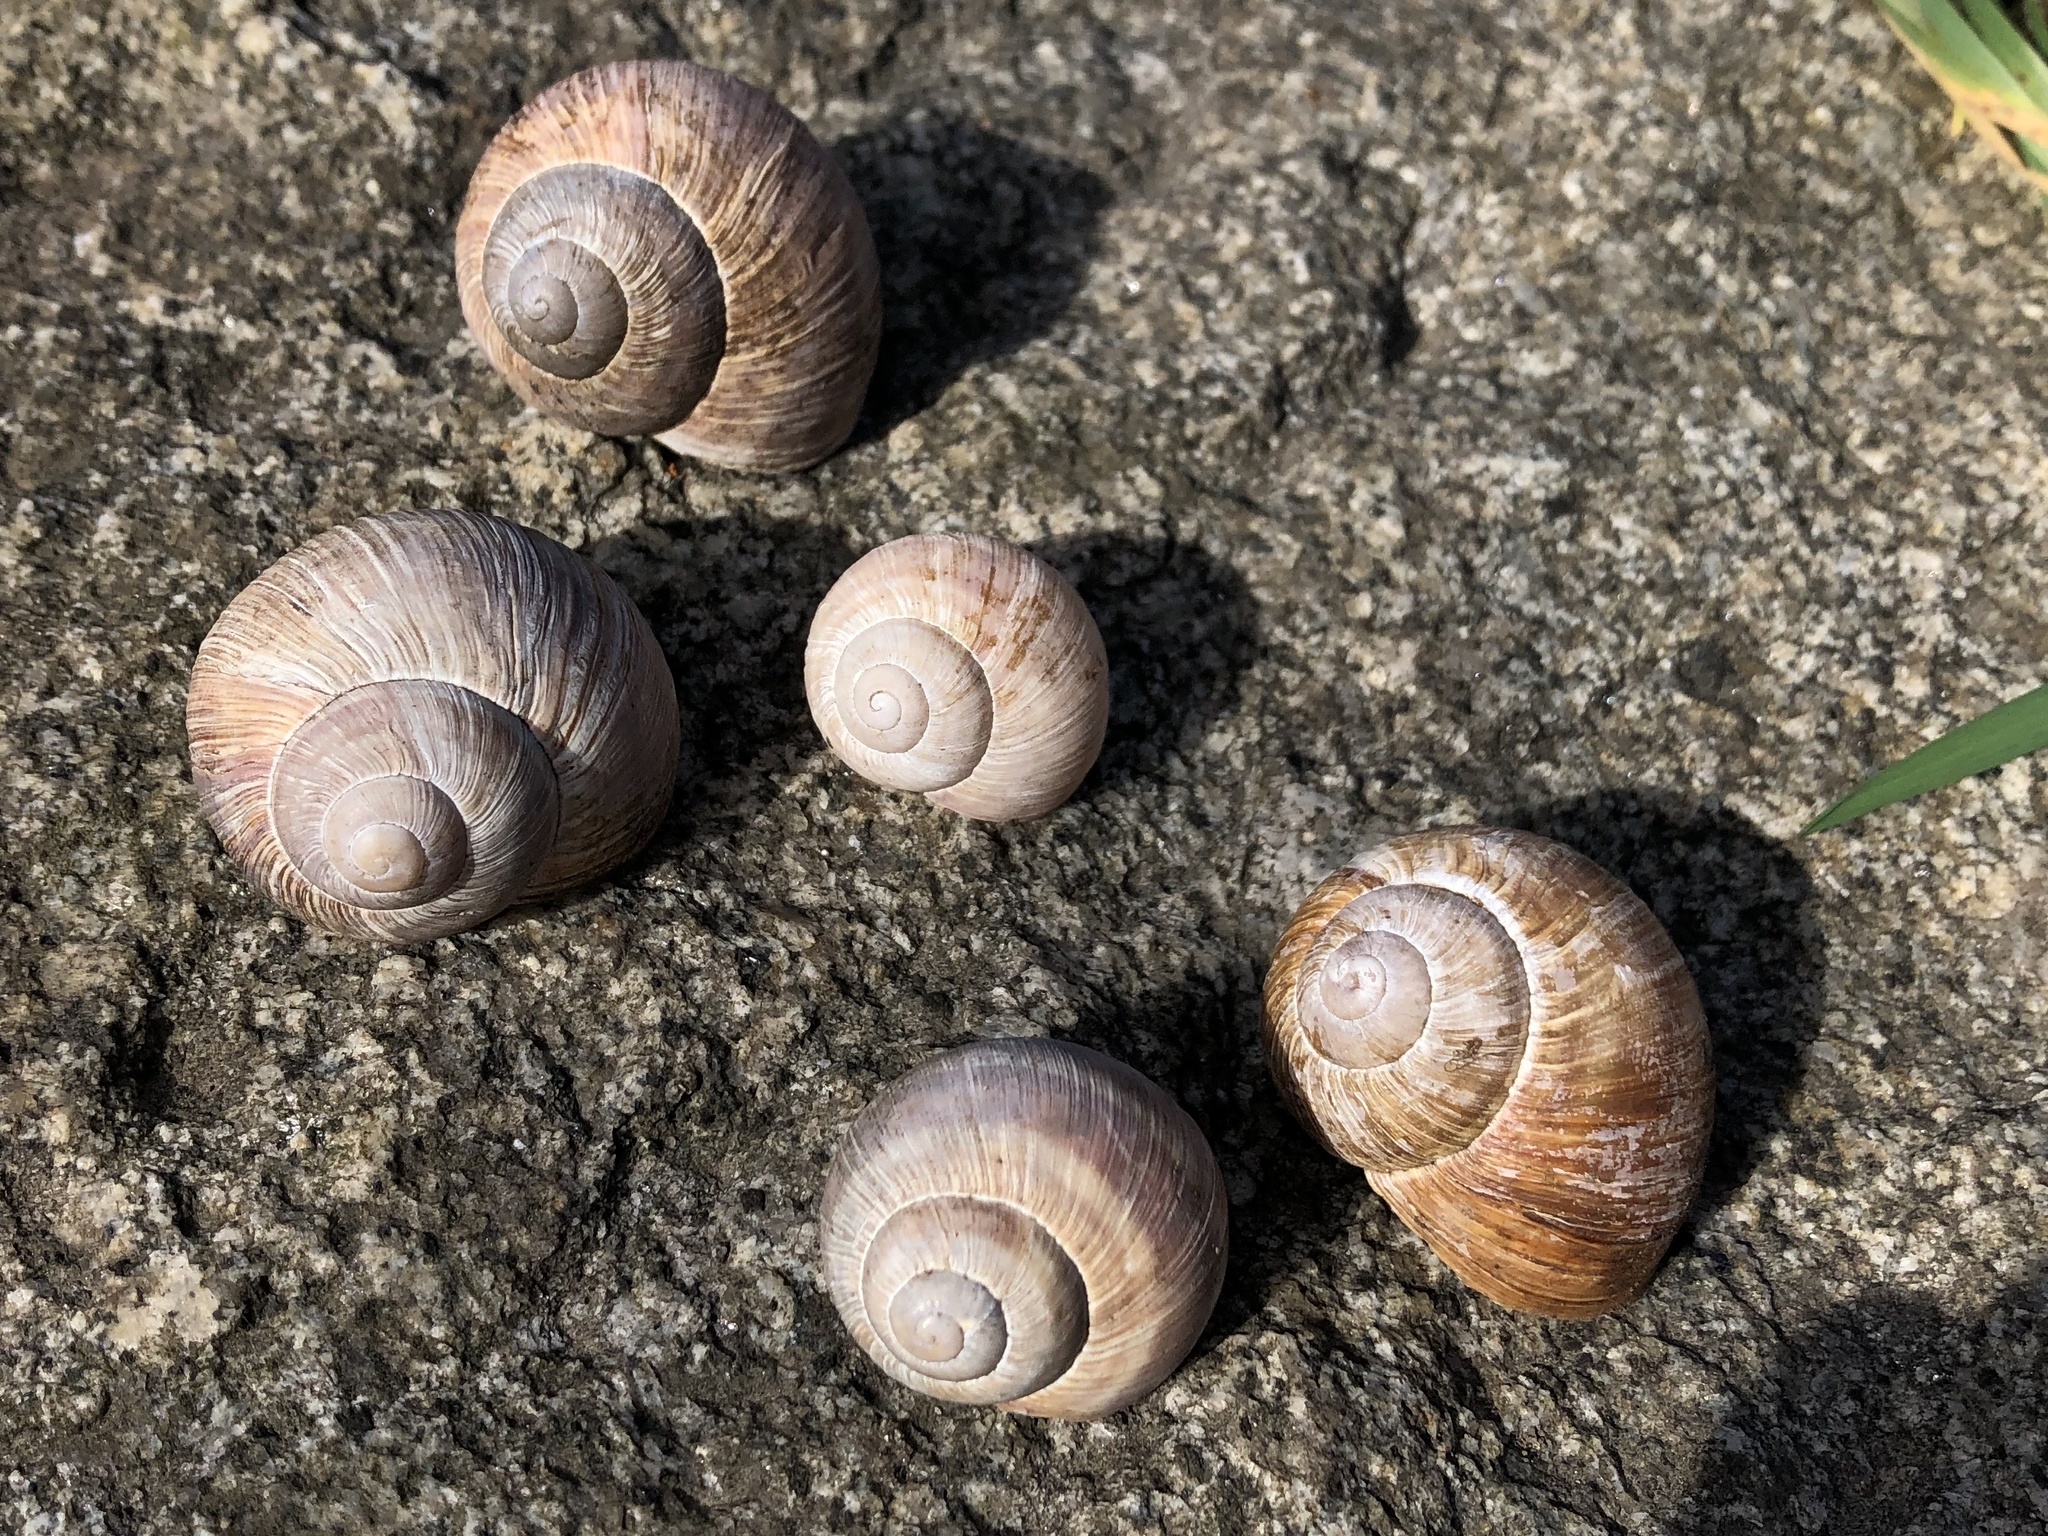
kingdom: Animalia
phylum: Mollusca
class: Gastropoda
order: Stylommatophora
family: Helicidae
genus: Helix
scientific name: Helix pomatia
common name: Roman snail
